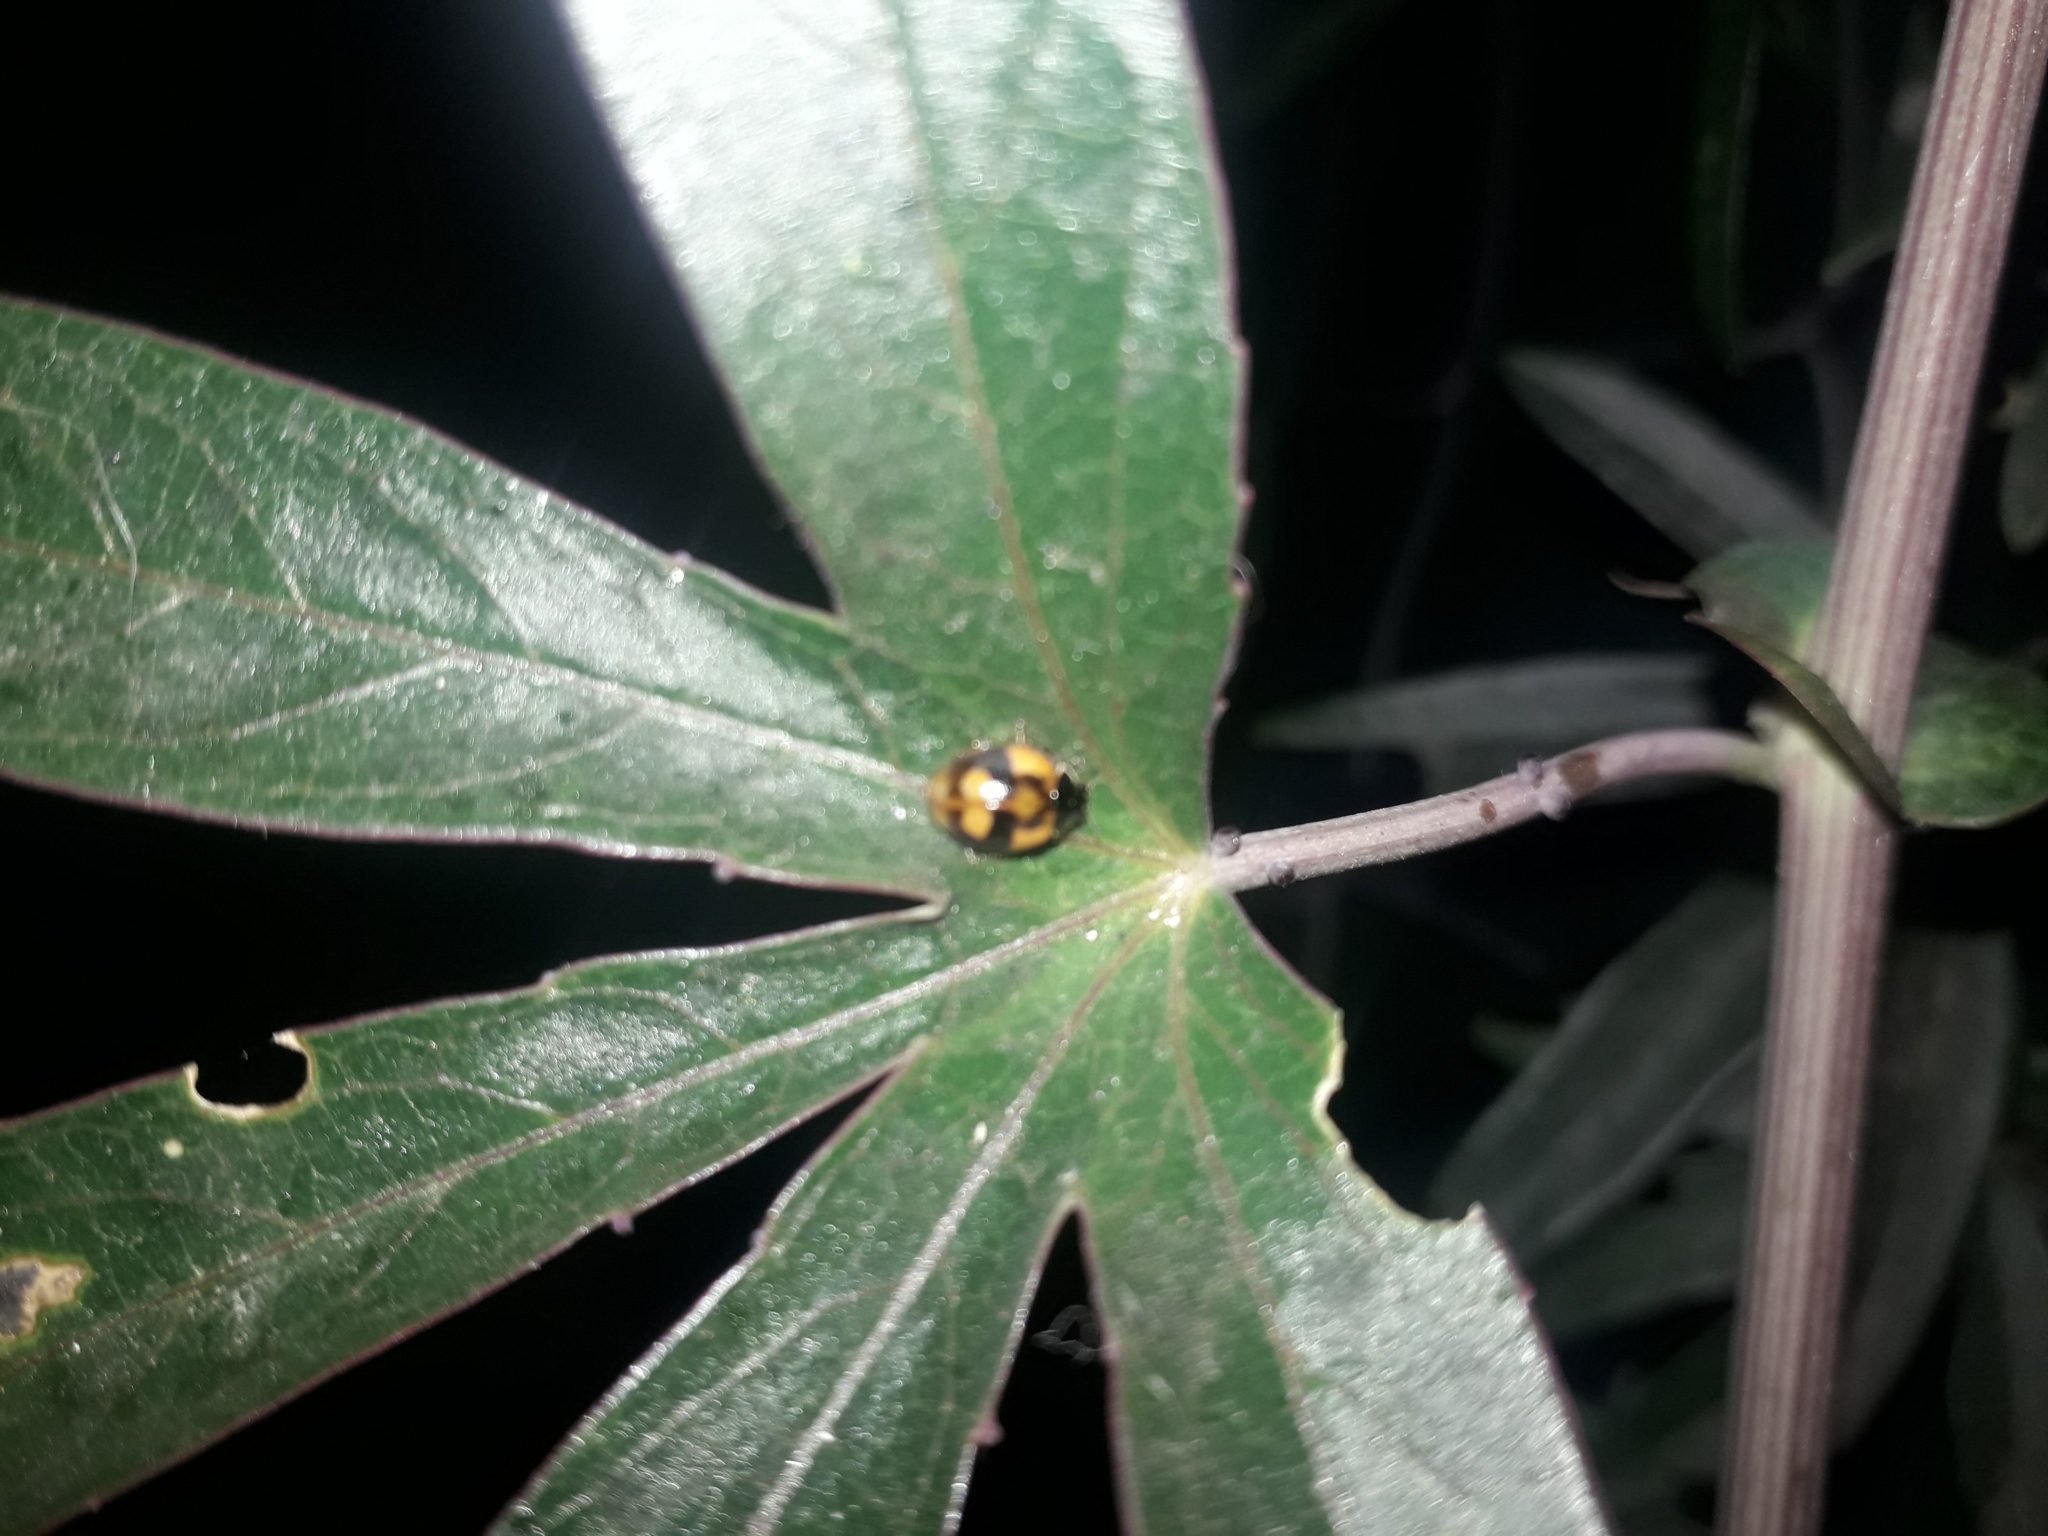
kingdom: Animalia
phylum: Arthropoda
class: Insecta
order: Coleoptera
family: Coccinellidae
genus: Adalia
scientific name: Adalia bipunctata
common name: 2-spot ladybird
